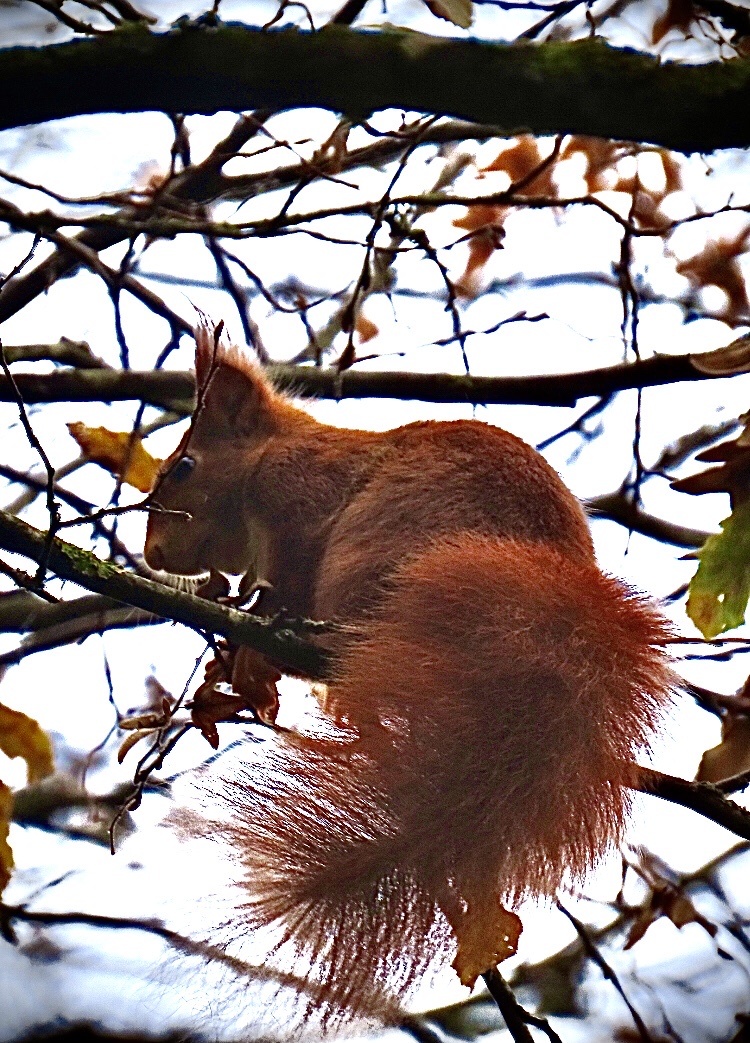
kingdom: Animalia
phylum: Chordata
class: Mammalia
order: Rodentia
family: Sciuridae
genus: Sciurus
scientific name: Sciurus vulgaris
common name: Eurasian red squirrel
